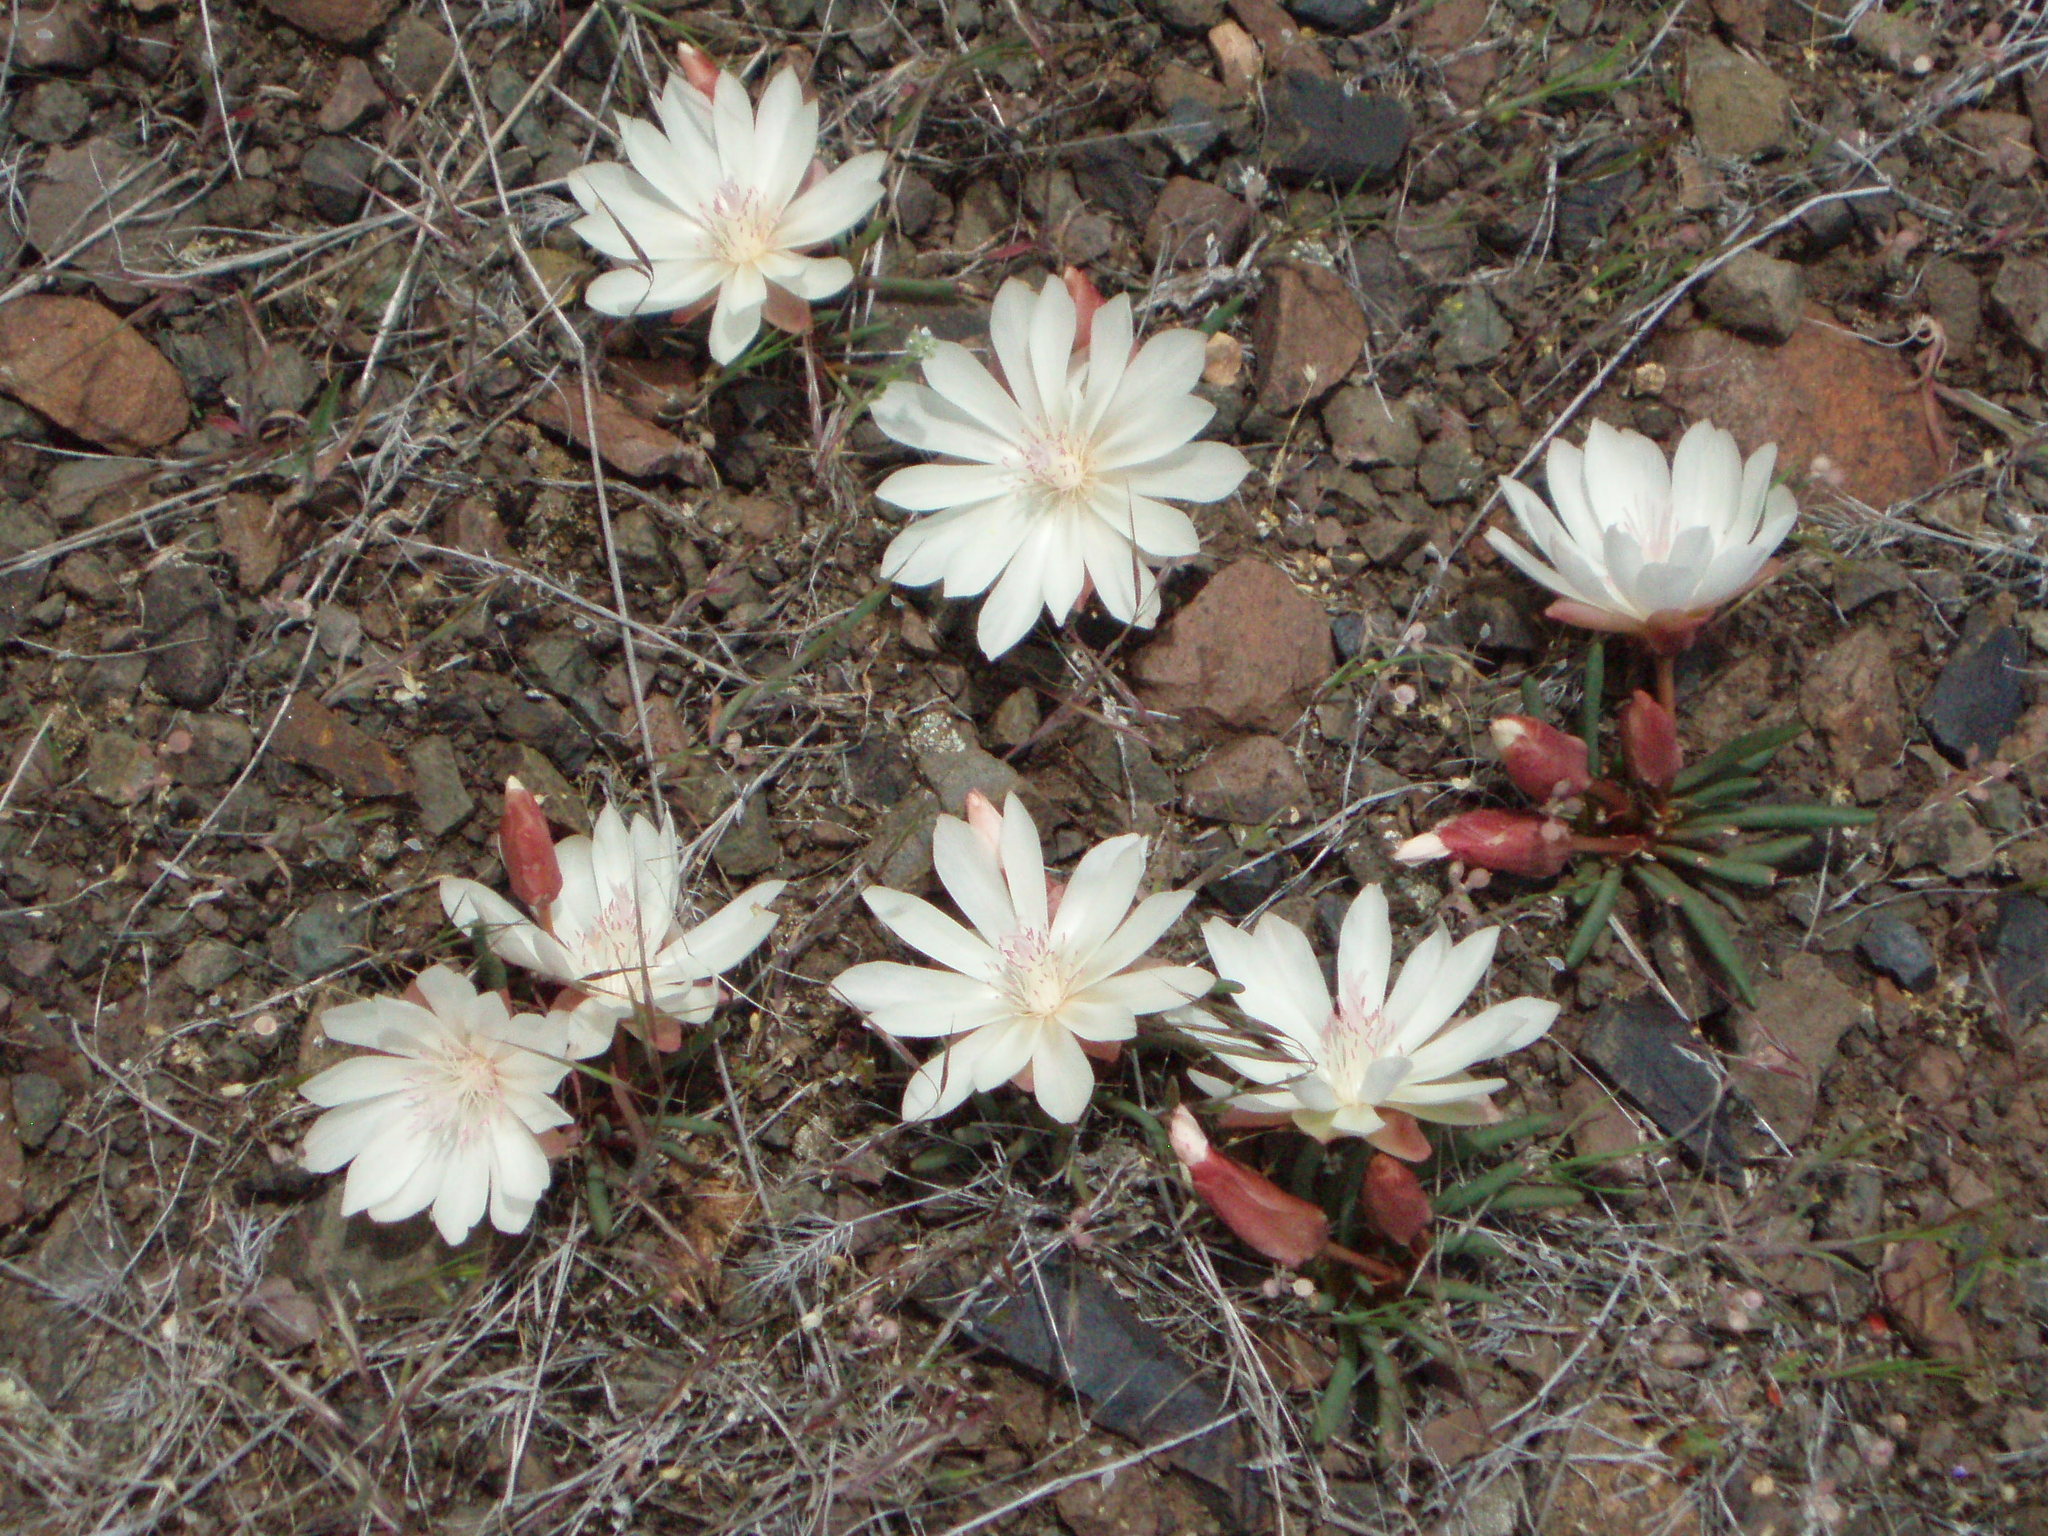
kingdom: Plantae
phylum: Tracheophyta
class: Magnoliopsida
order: Caryophyllales
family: Montiaceae
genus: Lewisia
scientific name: Lewisia rediviva
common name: Bitter-root
